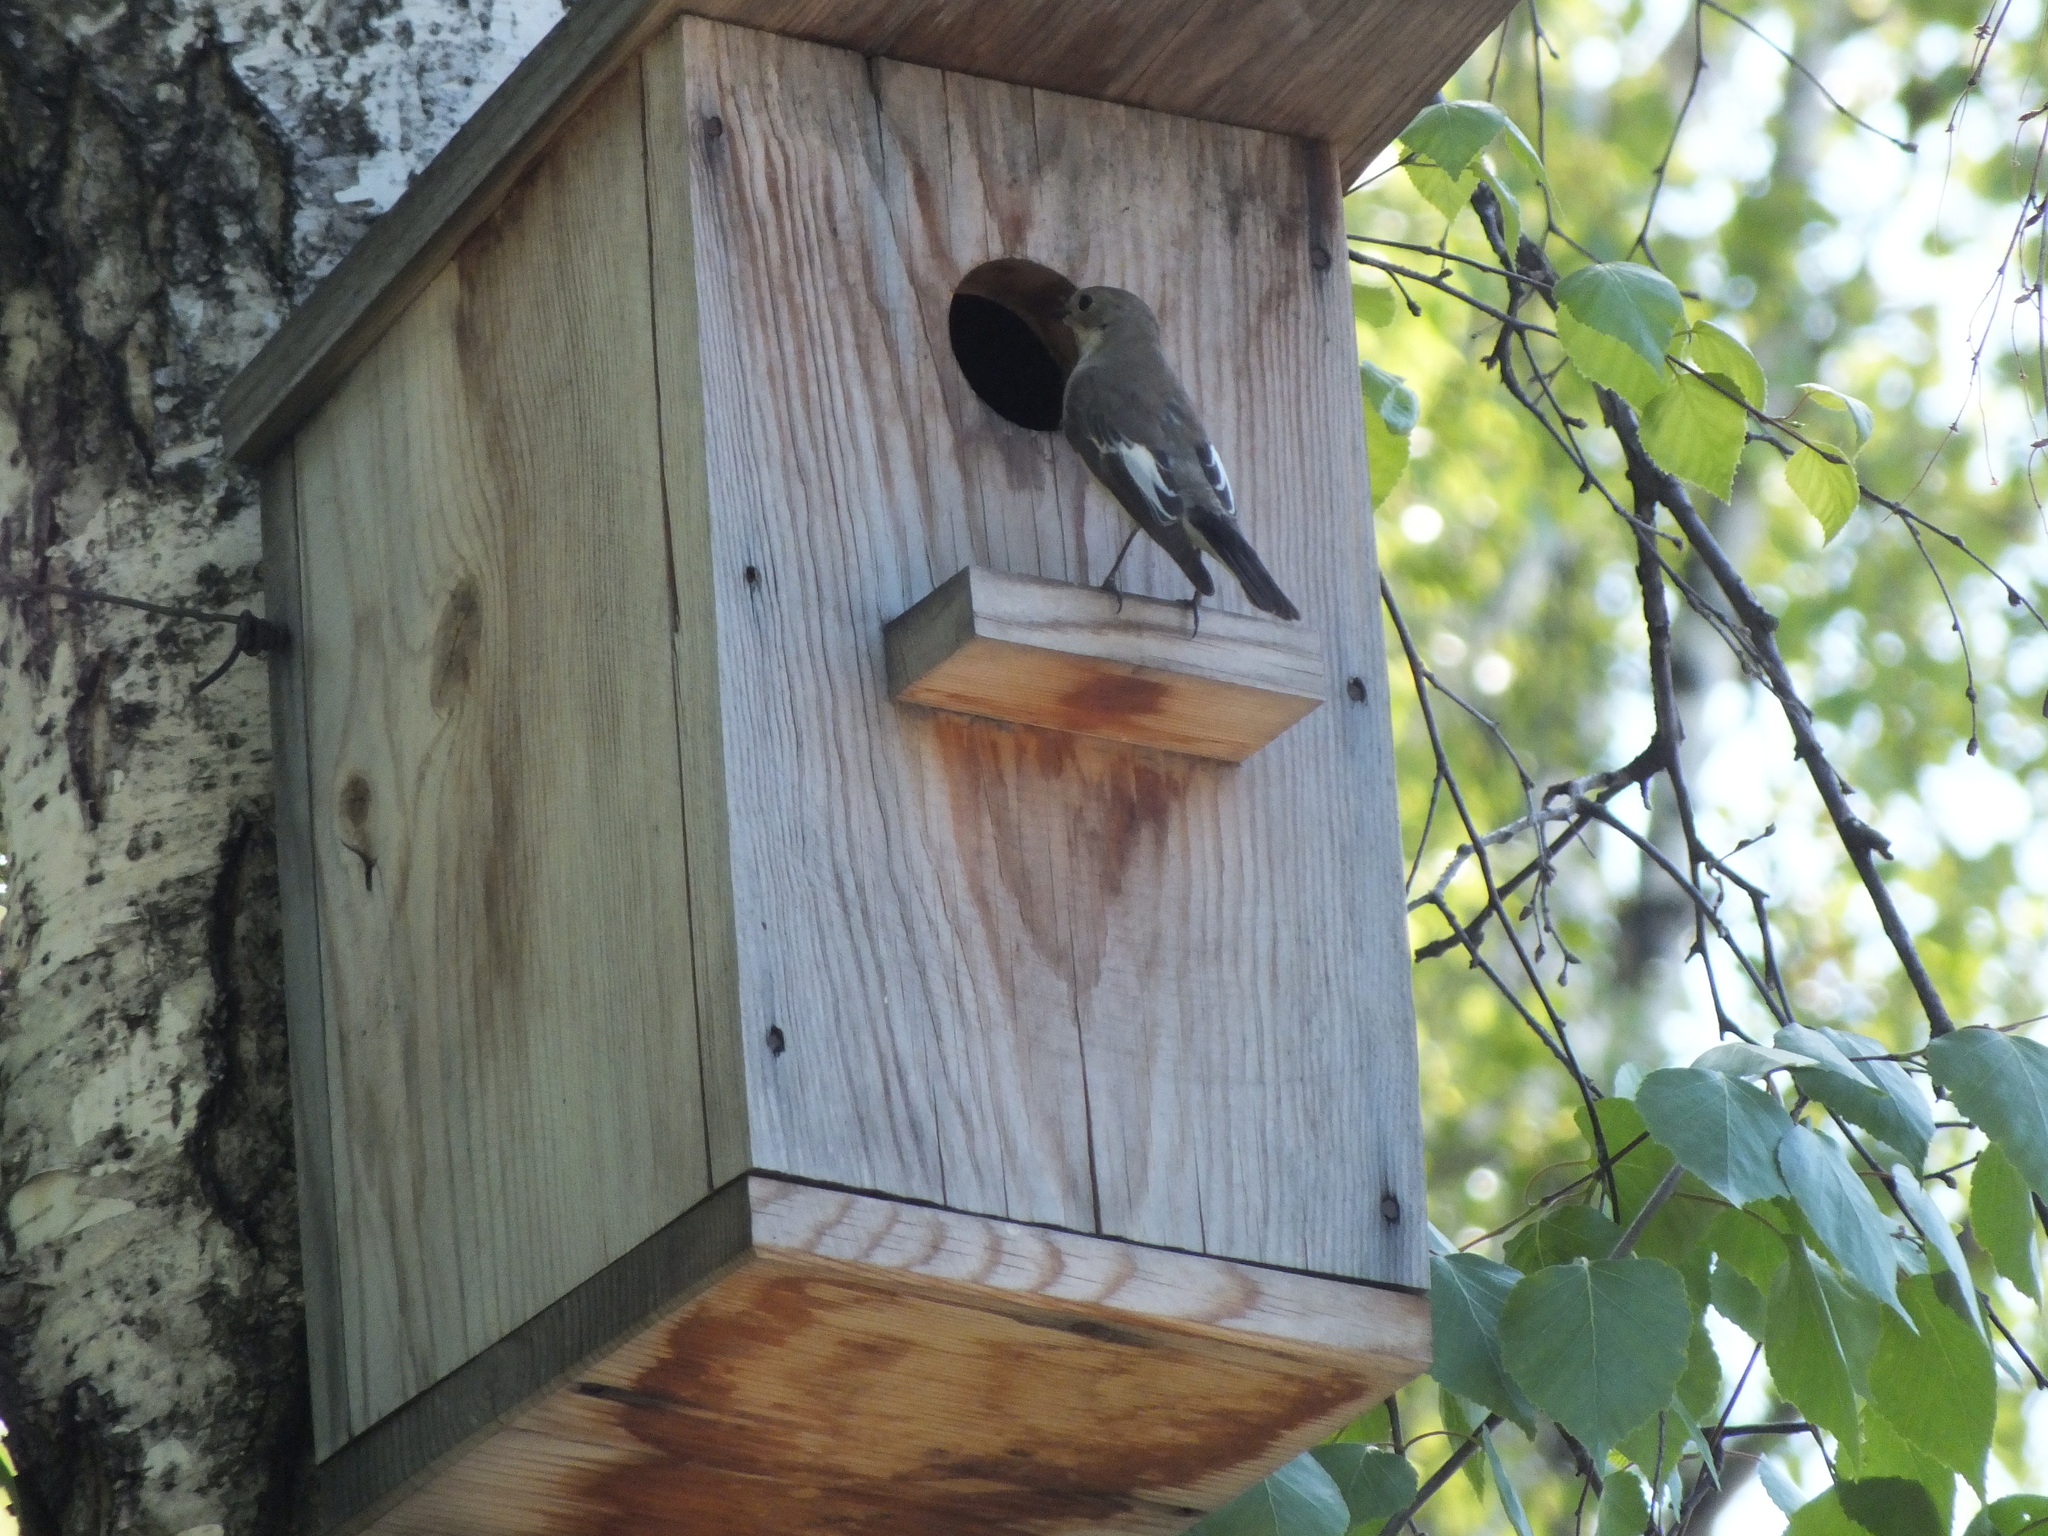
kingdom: Animalia
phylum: Chordata
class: Aves
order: Passeriformes
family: Muscicapidae
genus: Ficedula
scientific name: Ficedula hypoleuca
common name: European pied flycatcher
